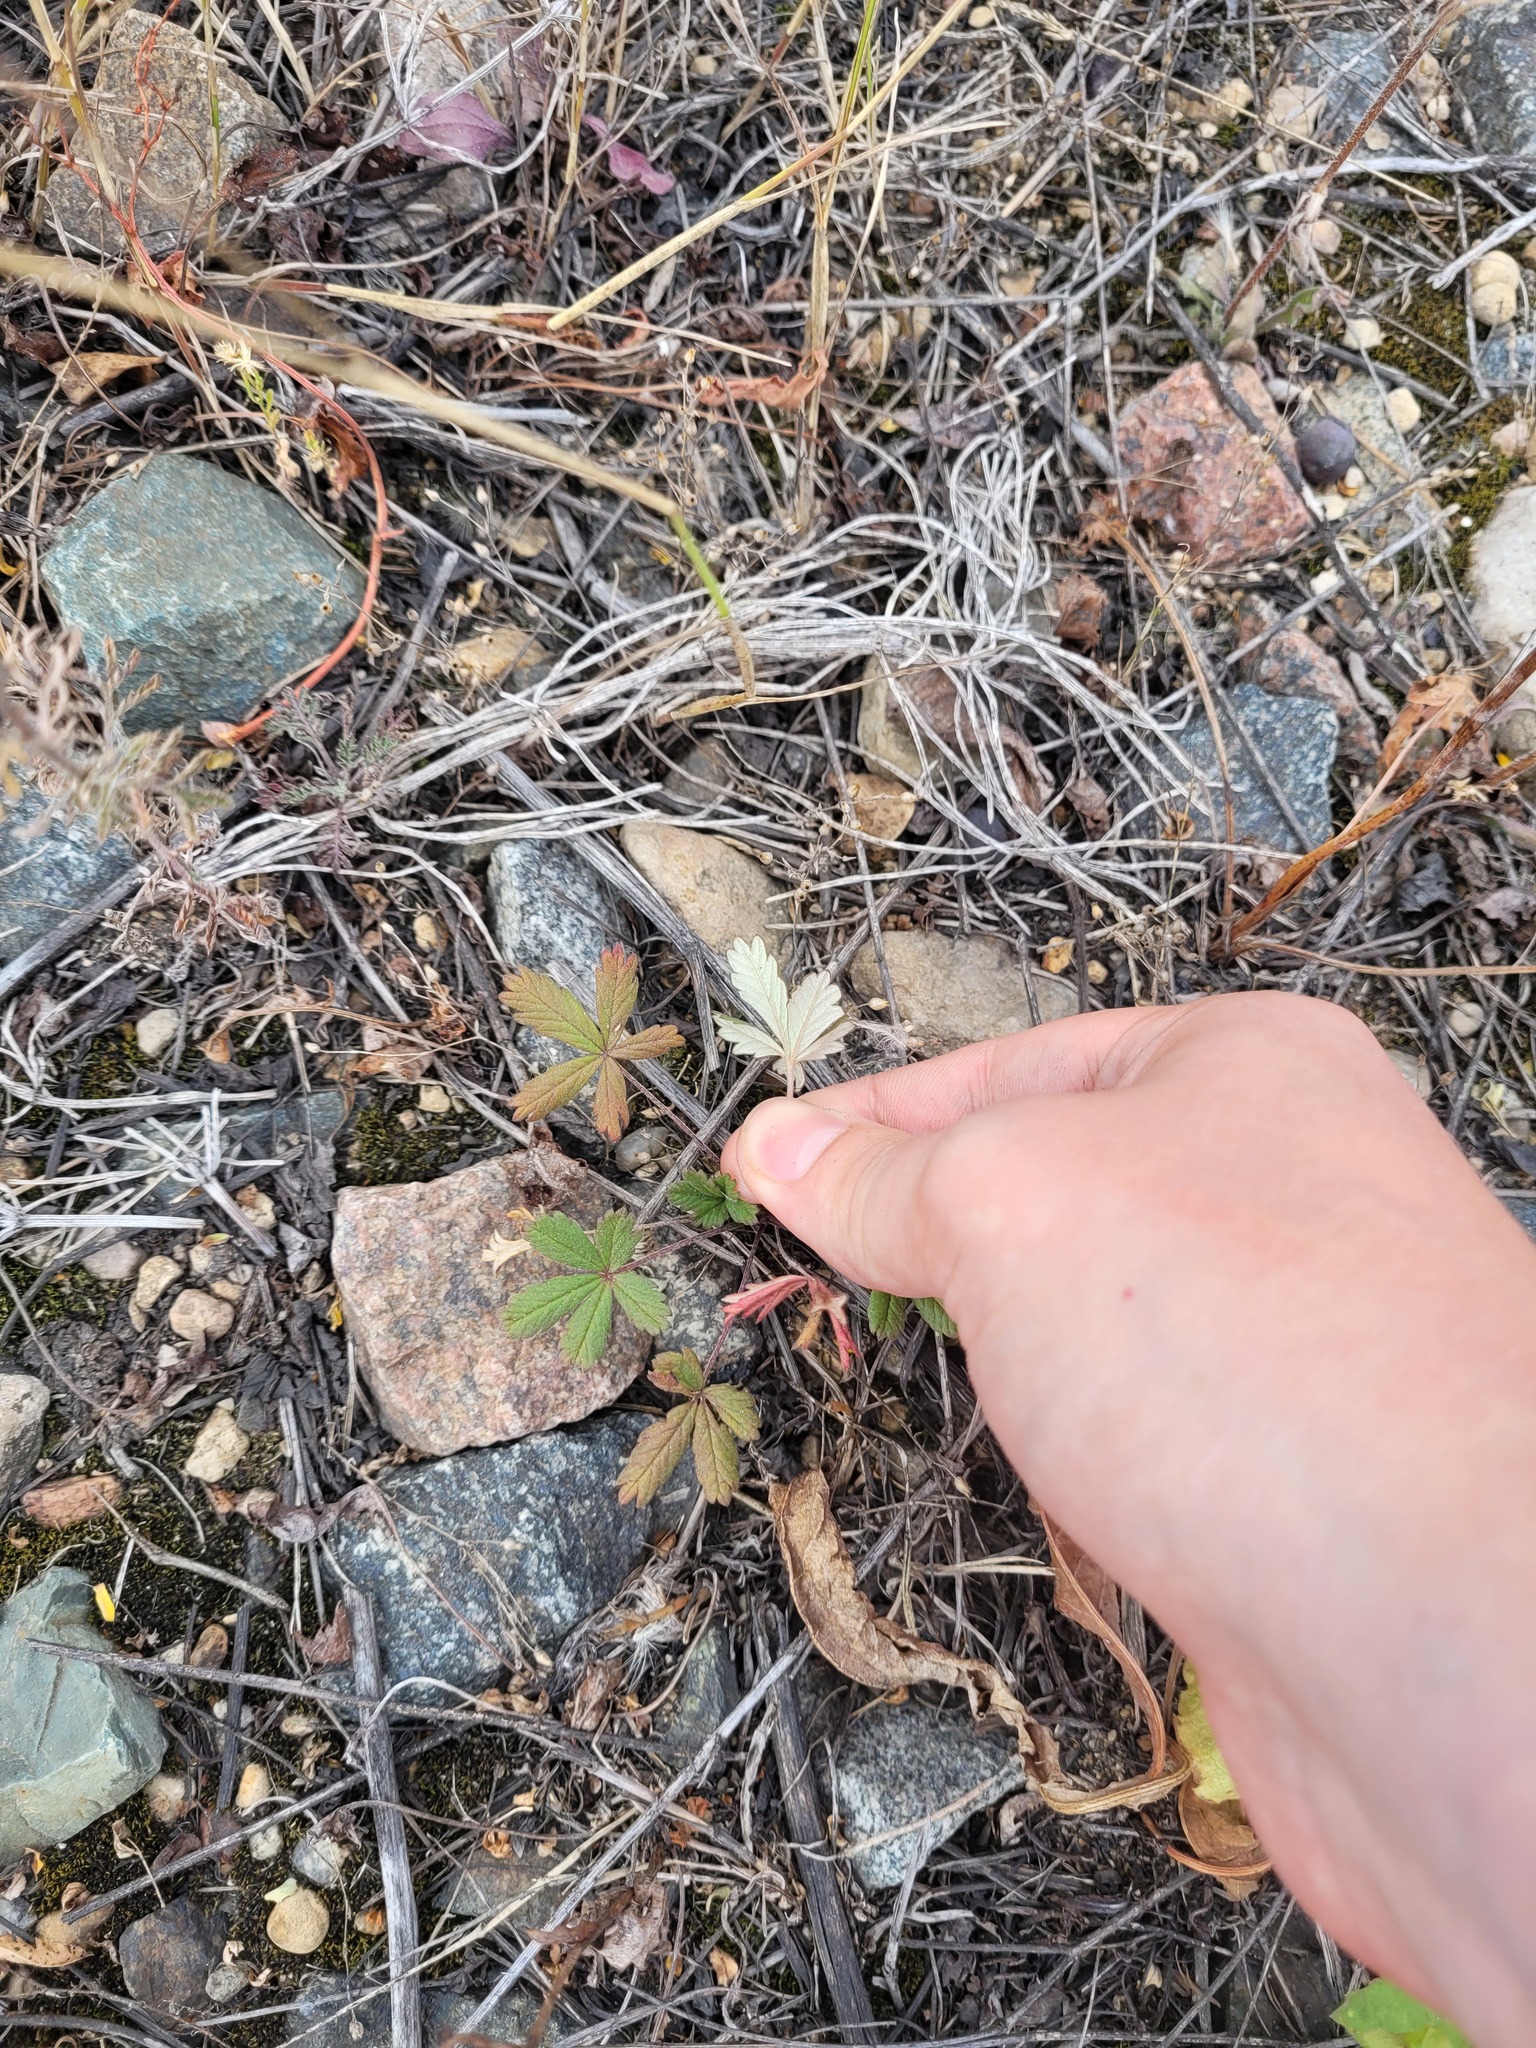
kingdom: Plantae
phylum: Tracheophyta
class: Magnoliopsida
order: Rosales
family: Rosaceae
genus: Potentilla
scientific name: Potentilla argentea
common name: Hoary cinquefoil
